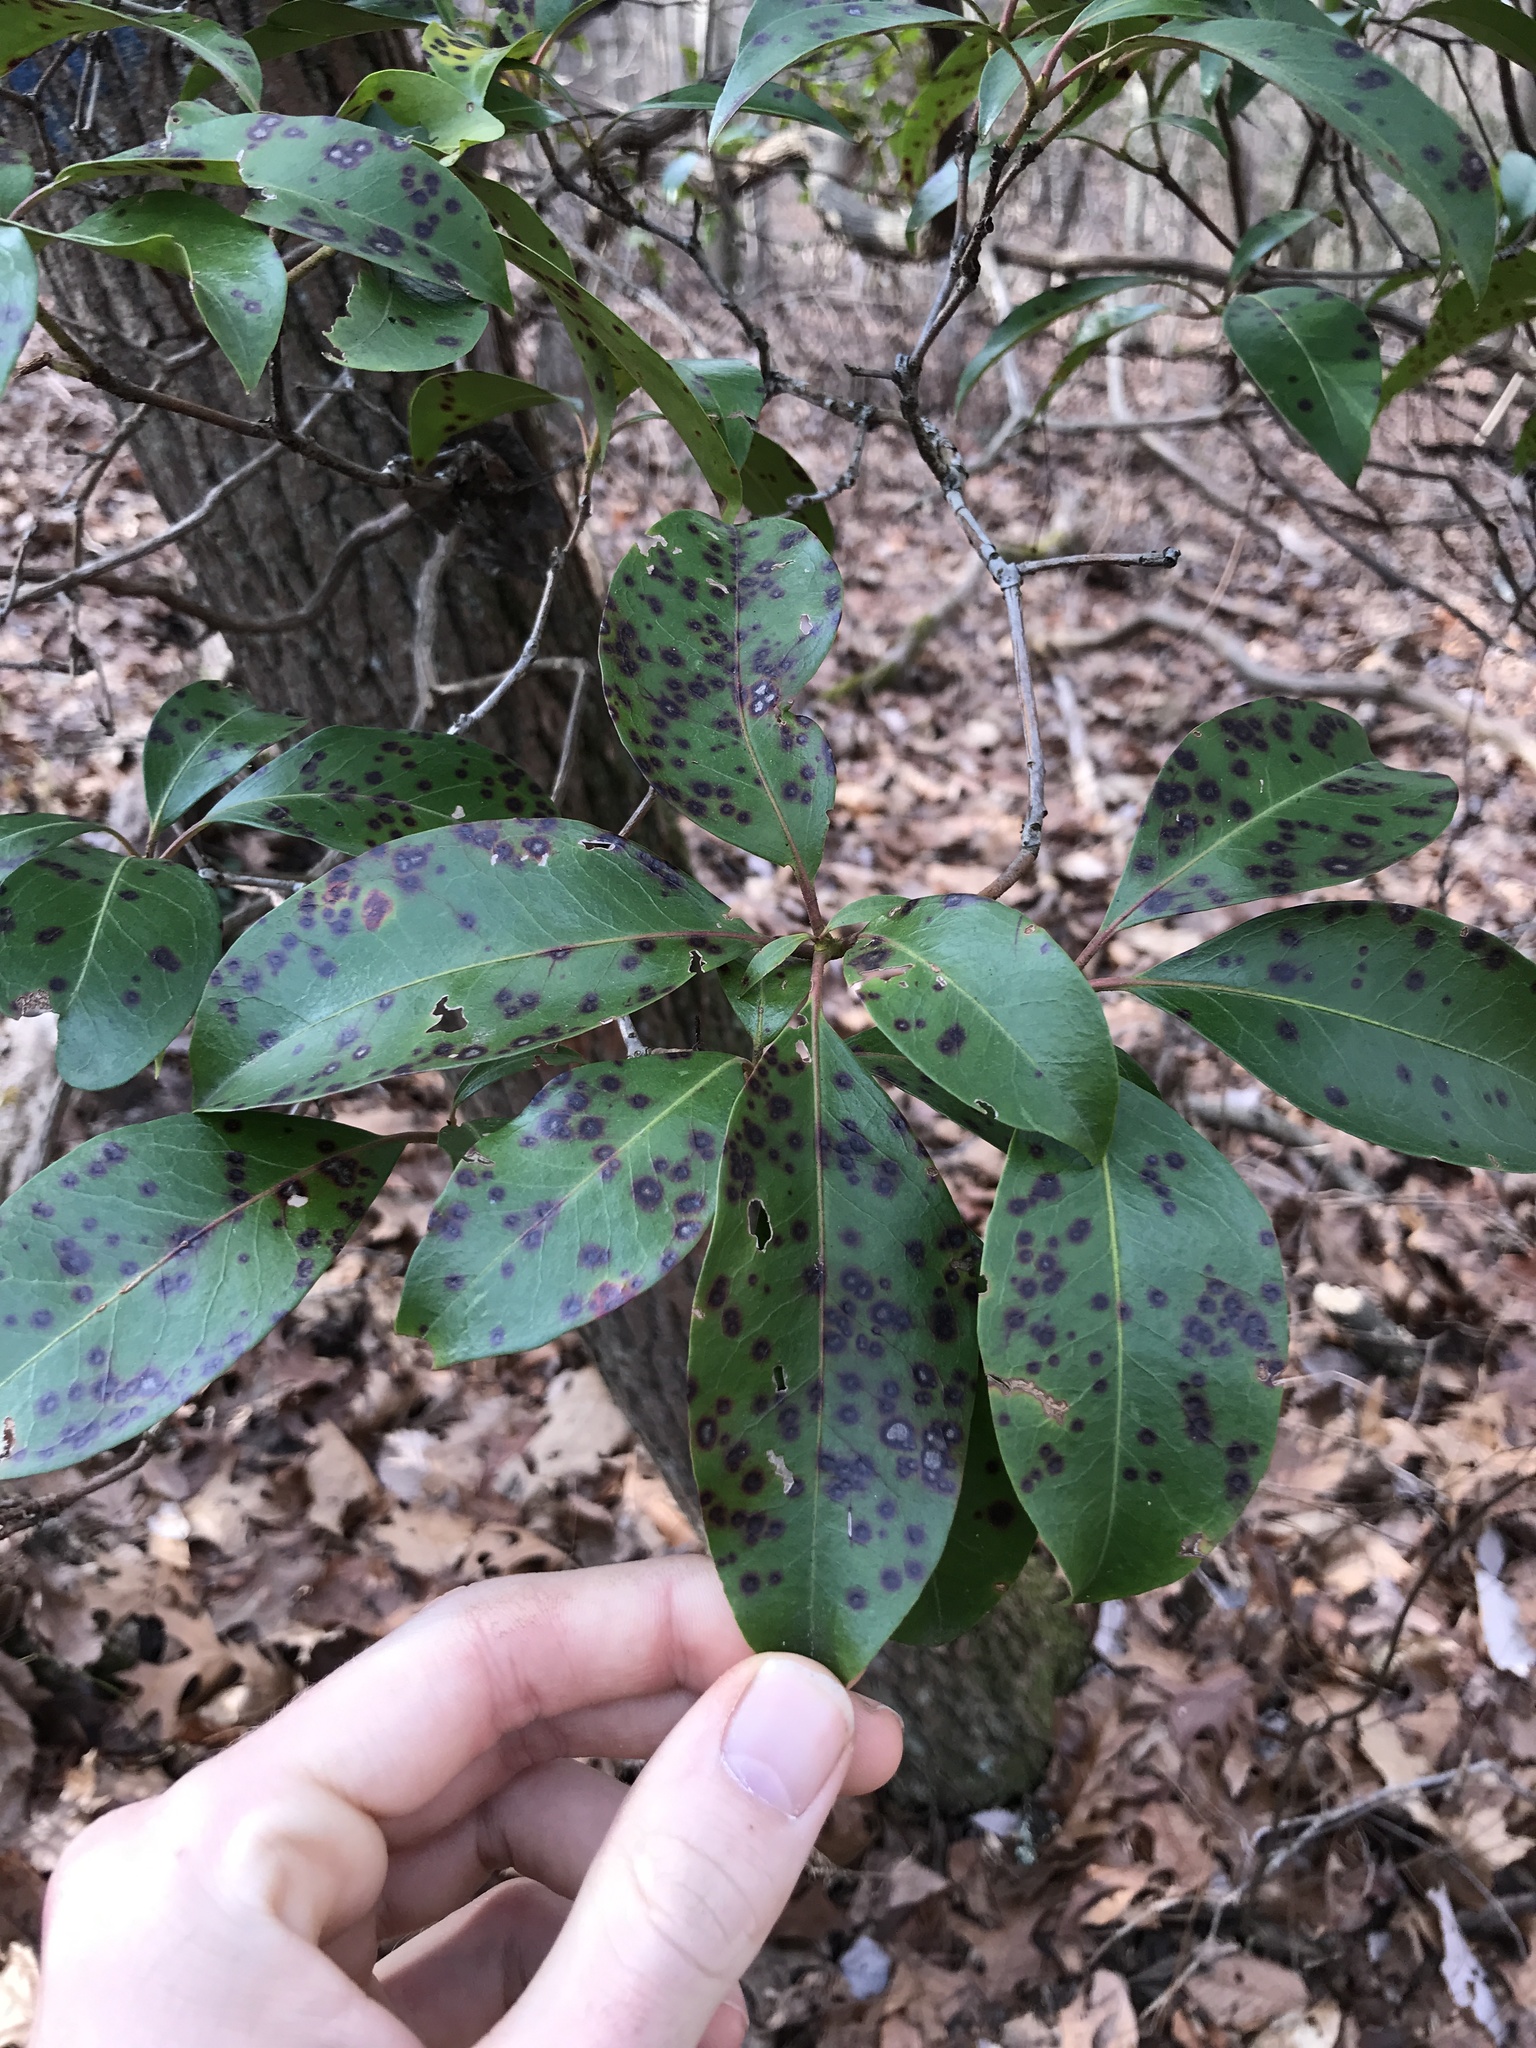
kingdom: Plantae
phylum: Tracheophyta
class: Magnoliopsida
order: Ericales
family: Ericaceae
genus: Kalmia
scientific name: Kalmia latifolia
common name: Mountain-laurel
